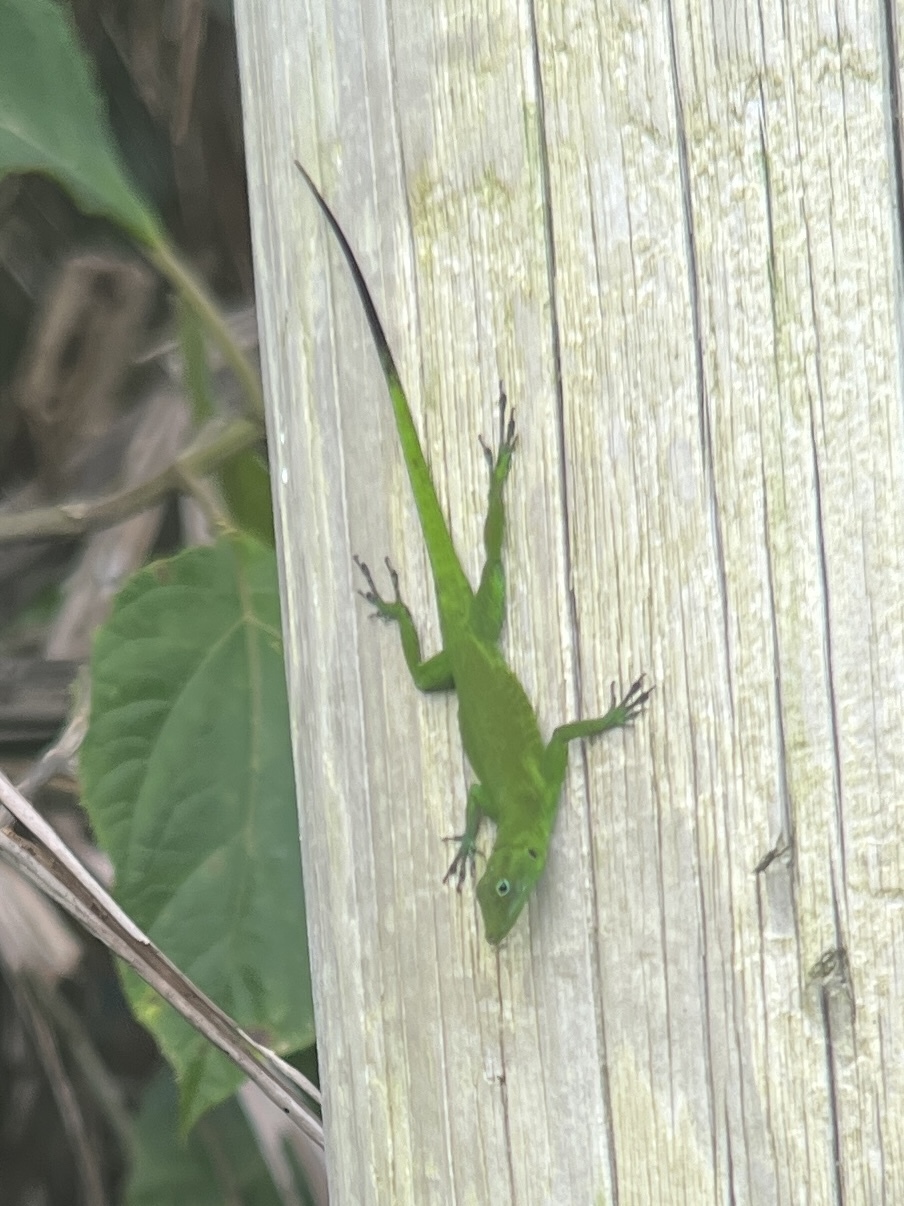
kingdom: Animalia
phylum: Chordata
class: Squamata
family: Dactyloidae
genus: Anolis
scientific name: Anolis evermanni
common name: Emerald anole
